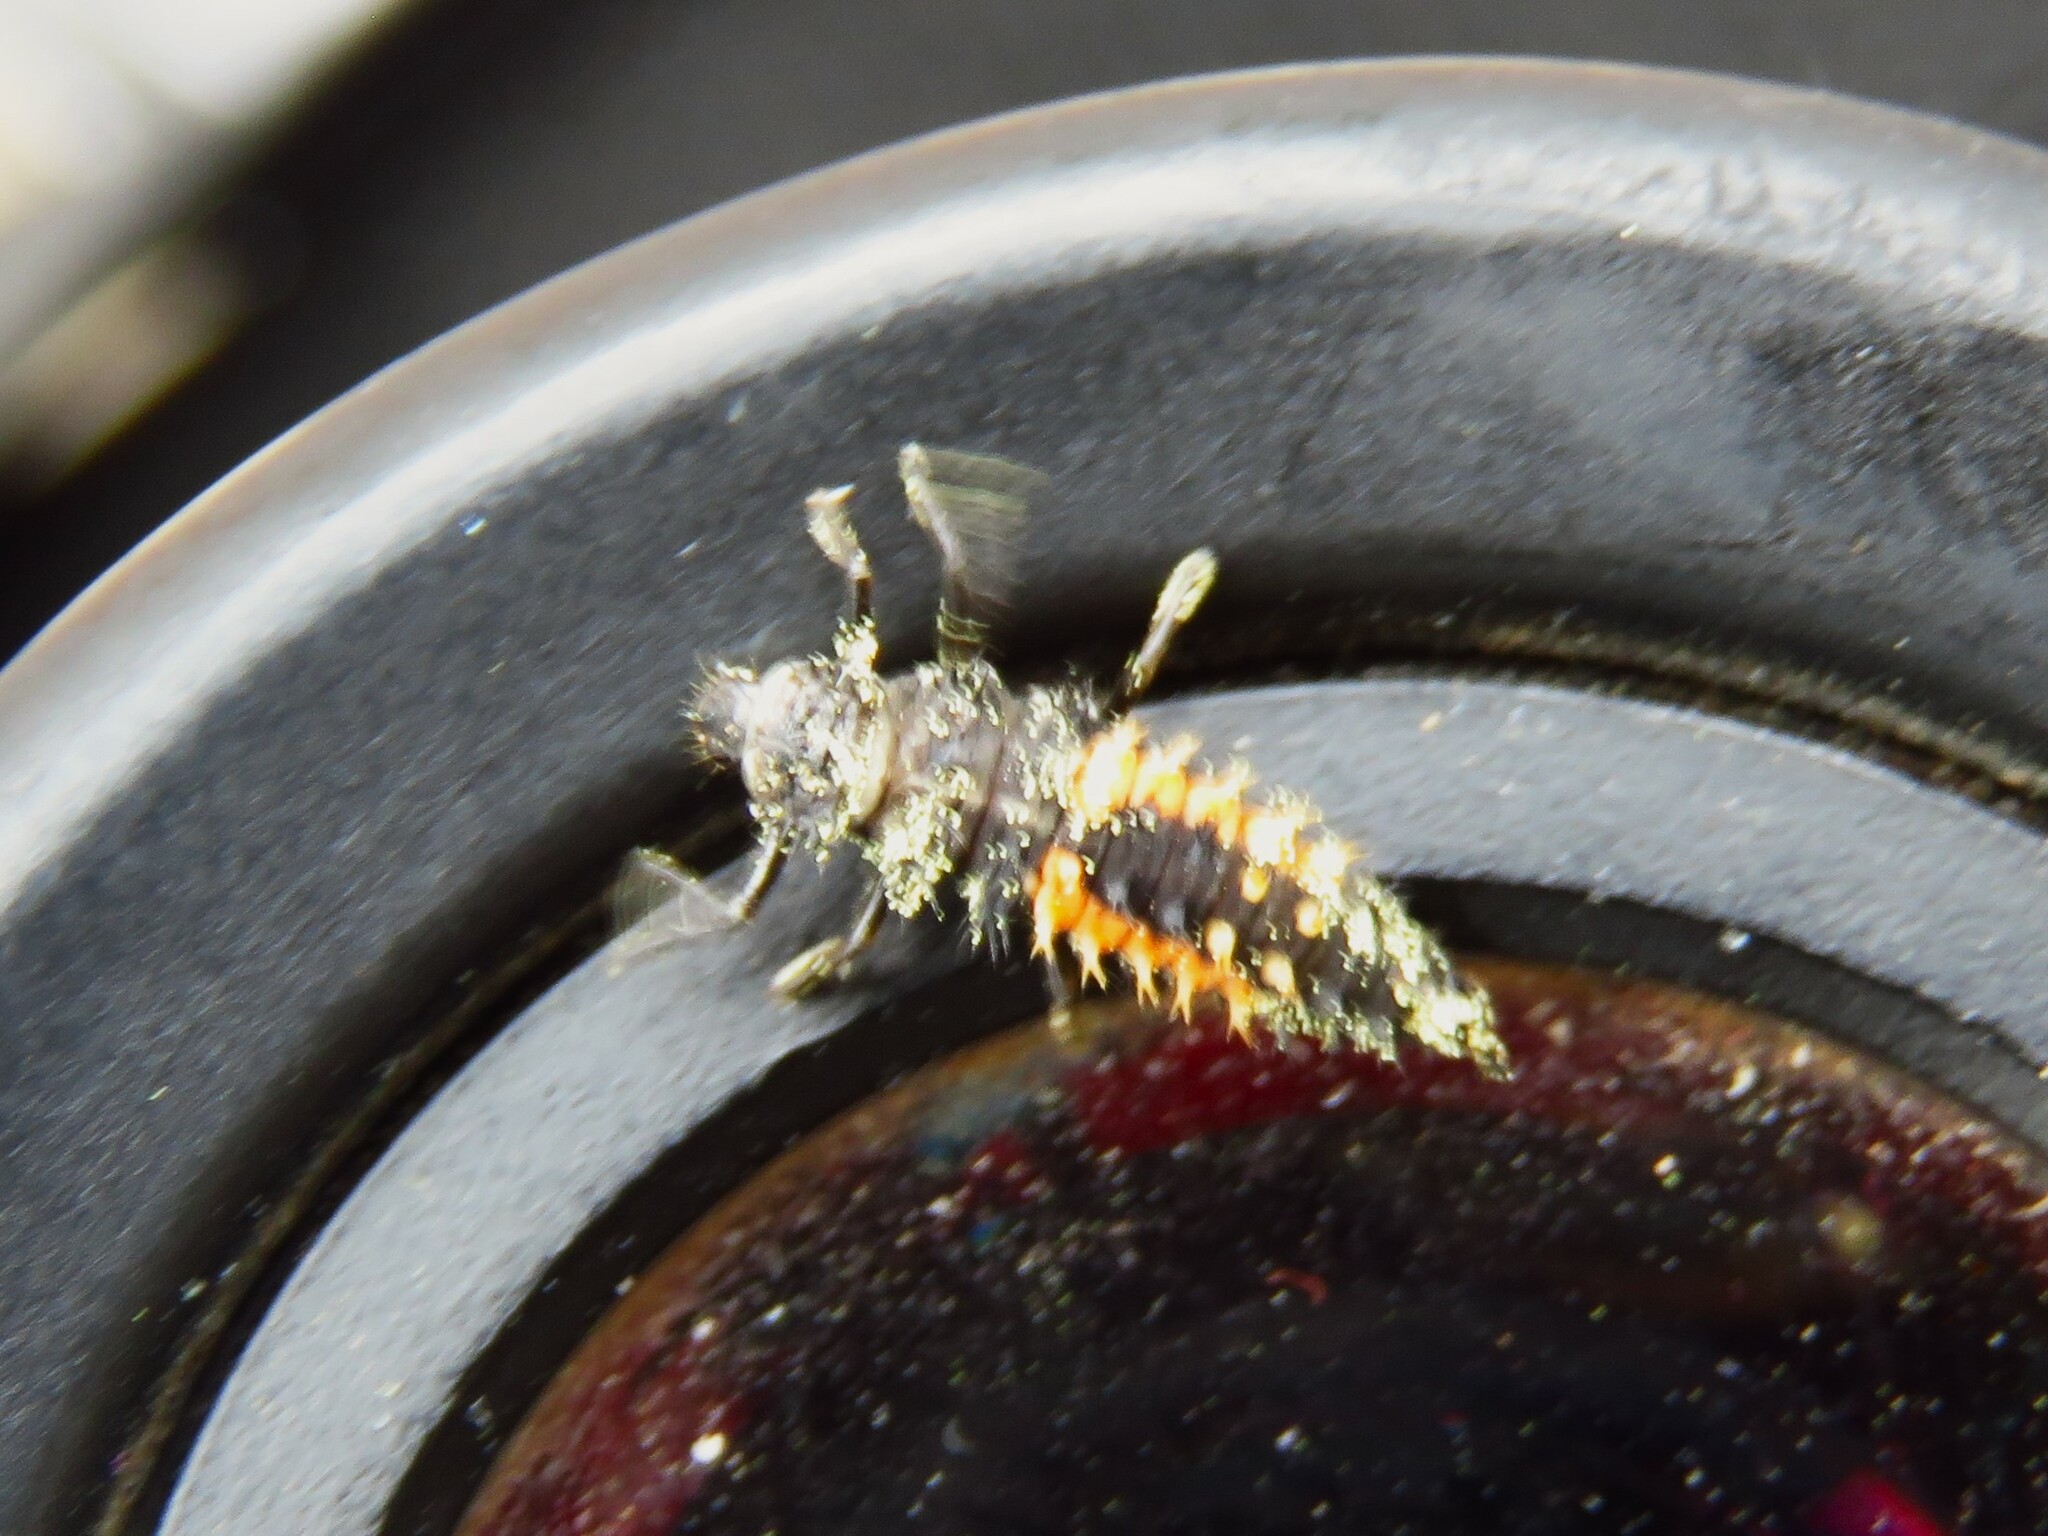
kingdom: Animalia
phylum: Arthropoda
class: Insecta
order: Coleoptera
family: Coccinellidae
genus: Harmonia
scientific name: Harmonia axyridis
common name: Harlequin ladybird
